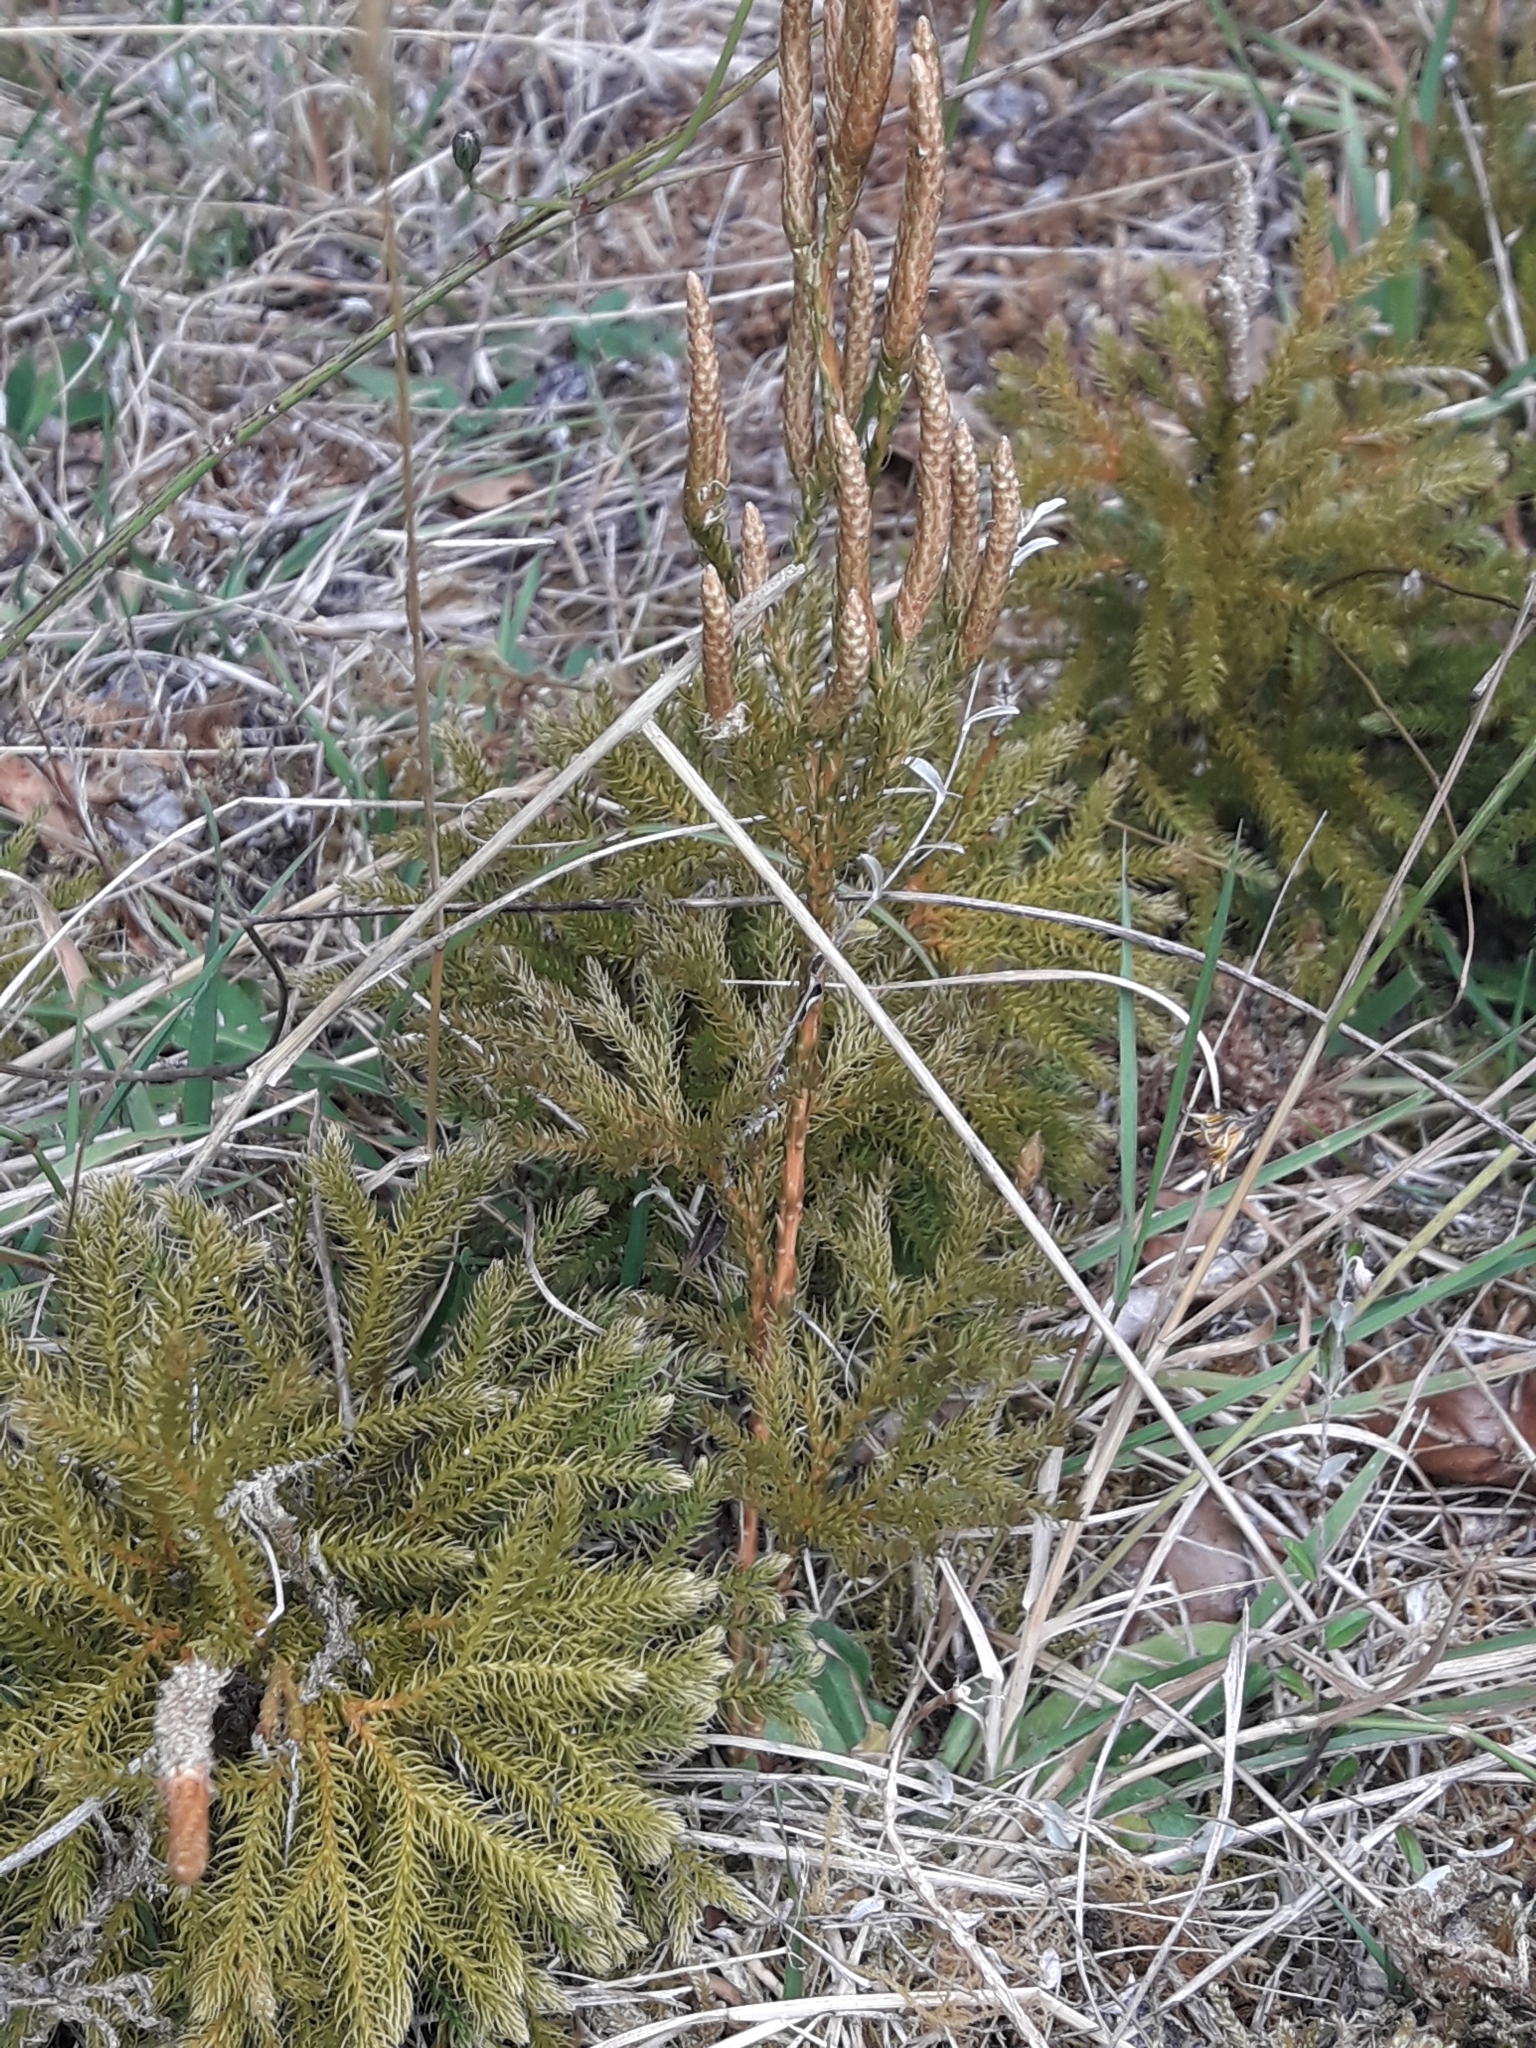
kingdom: Plantae
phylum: Tracheophyta
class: Lycopodiopsida
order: Lycopodiales
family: Lycopodiaceae
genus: Austrolycopodium
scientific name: Austrolycopodium fastigiatum
